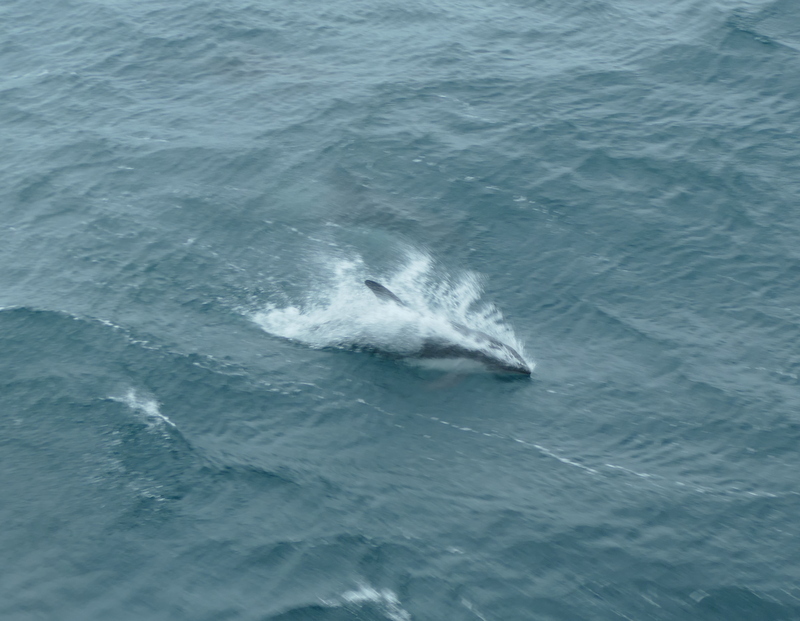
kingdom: Animalia
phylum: Chordata
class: Mammalia
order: Cetacea
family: Delphinidae
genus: Lagenorhynchus
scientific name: Lagenorhynchus australis
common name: Peale's dolphin
